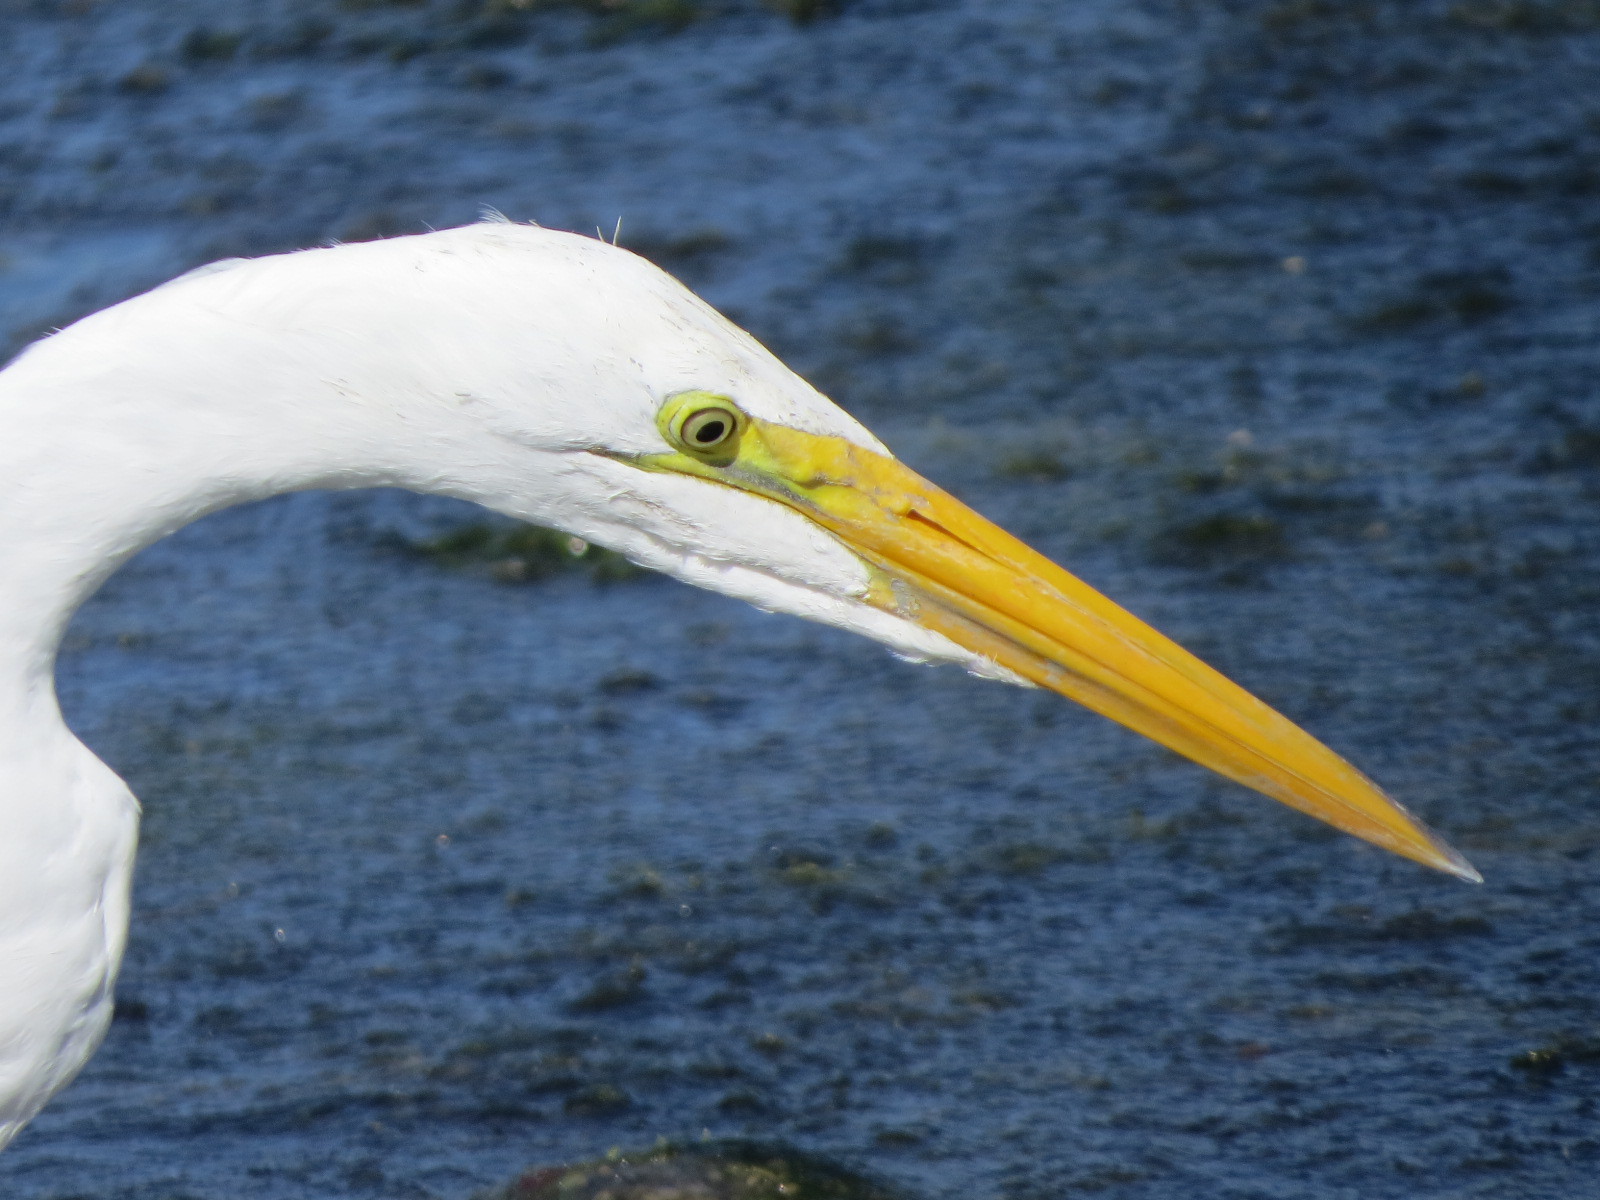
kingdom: Animalia
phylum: Chordata
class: Aves
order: Pelecaniformes
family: Ardeidae
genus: Ardea
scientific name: Ardea alba
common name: Great egret
